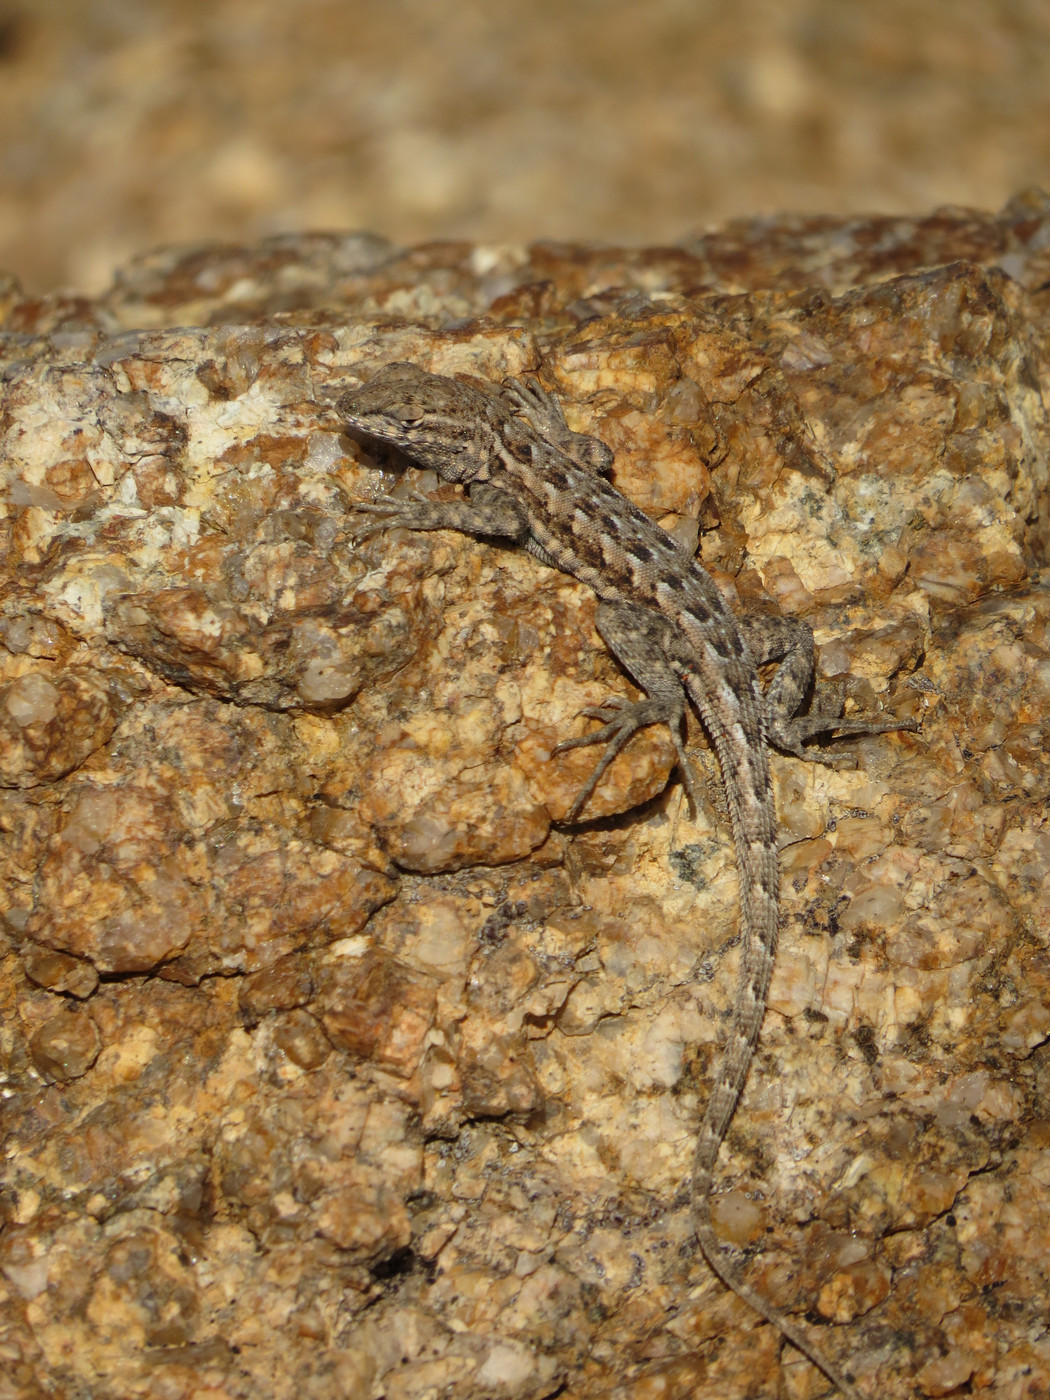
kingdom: Animalia
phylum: Chordata
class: Squamata
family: Phrynosomatidae
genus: Uta
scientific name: Uta stansburiana
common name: Side-blotched lizard
